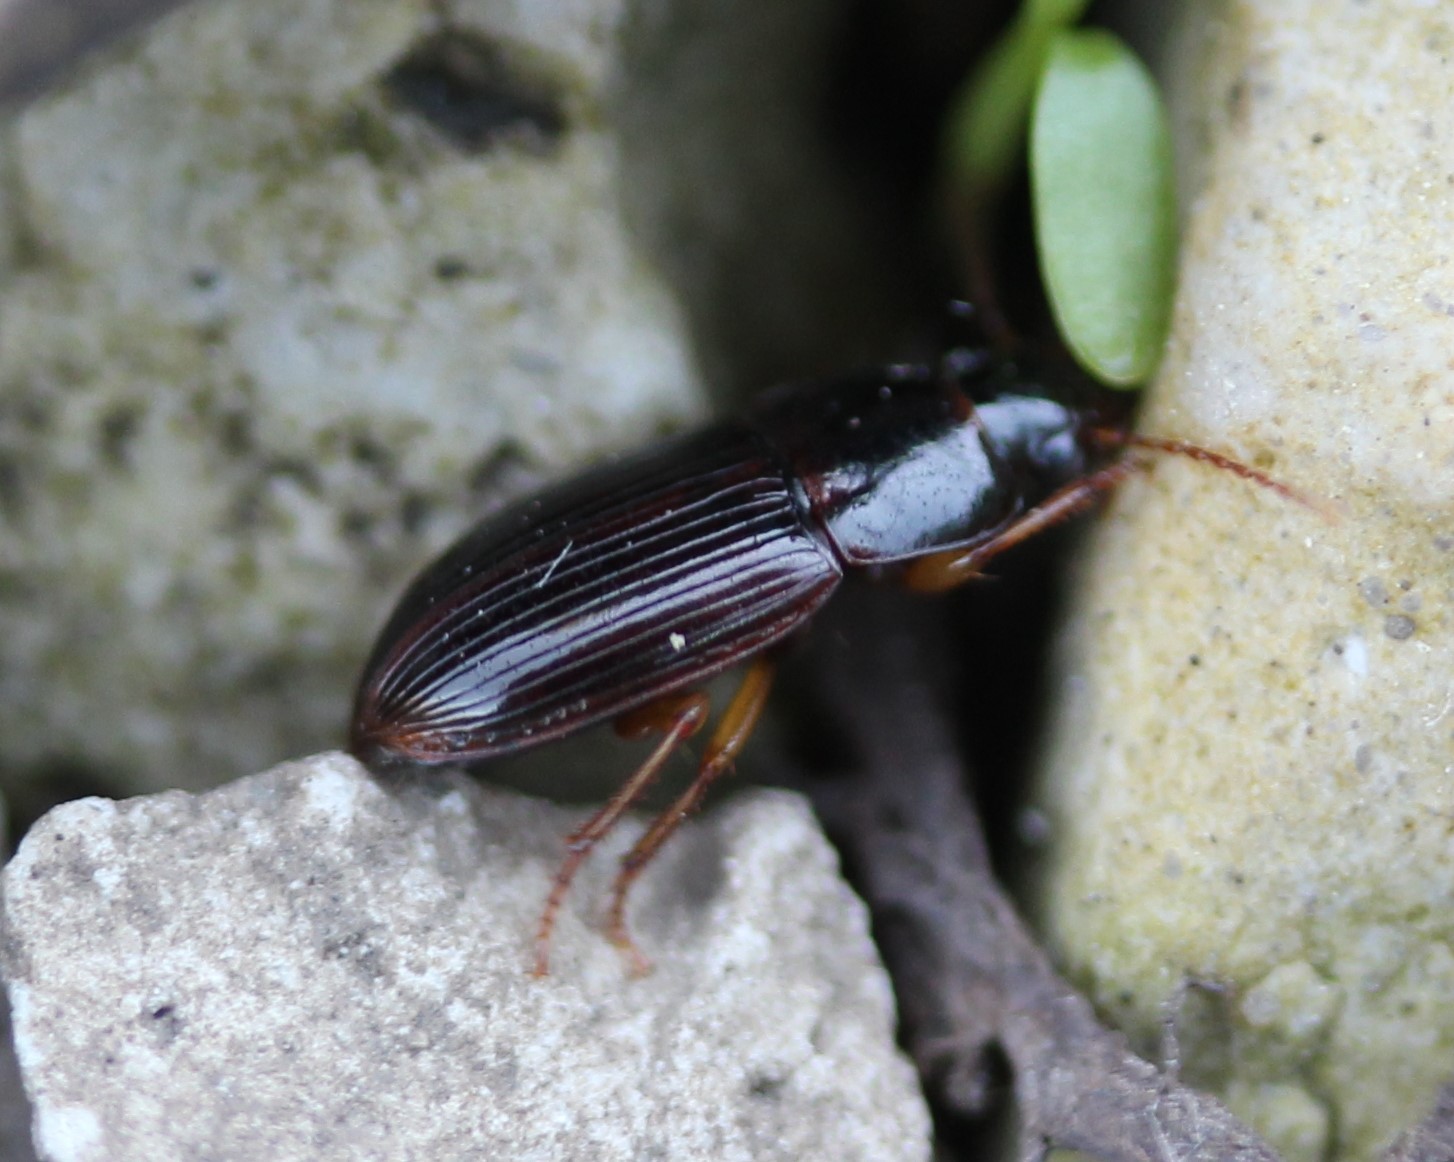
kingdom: Animalia
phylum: Arthropoda
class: Insecta
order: Coleoptera
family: Carabidae
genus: Trichotichnus
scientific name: Trichotichnus nitidulus
